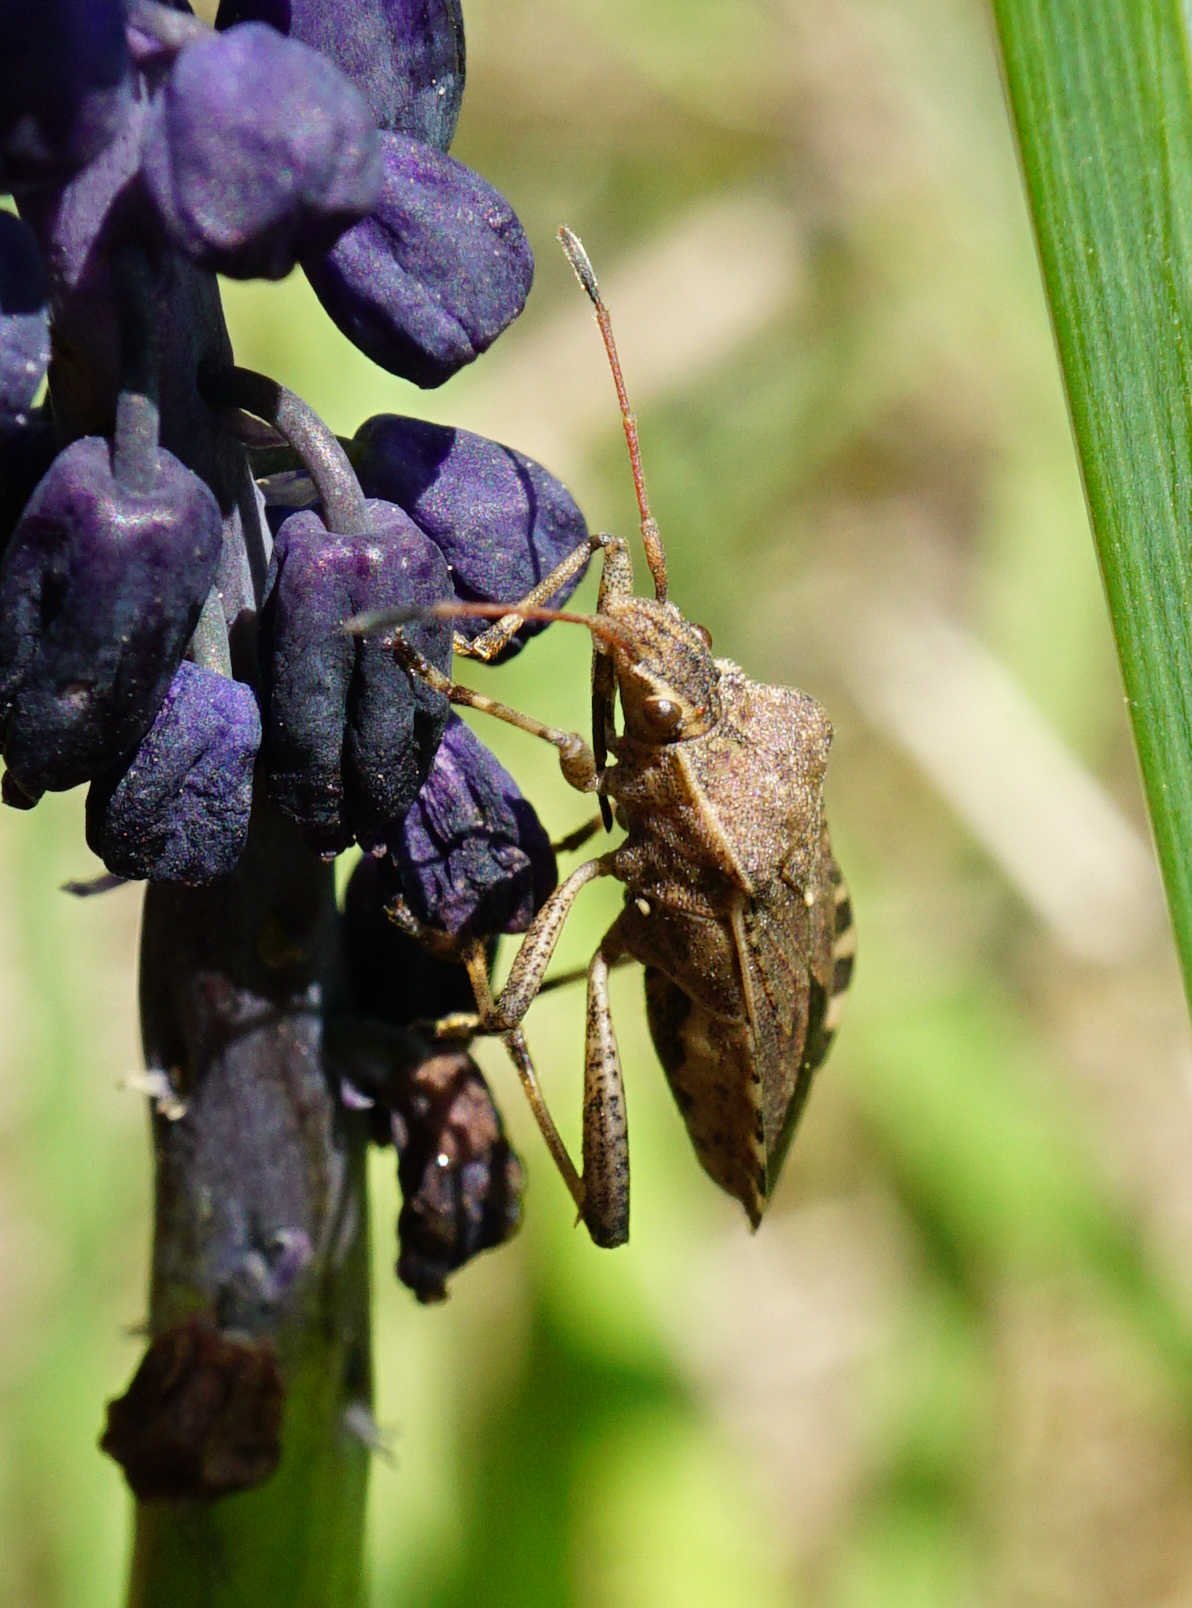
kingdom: Animalia
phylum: Arthropoda
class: Insecta
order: Hemiptera
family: Coreidae
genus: Ceraleptus
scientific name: Ceraleptus gracilicornis
